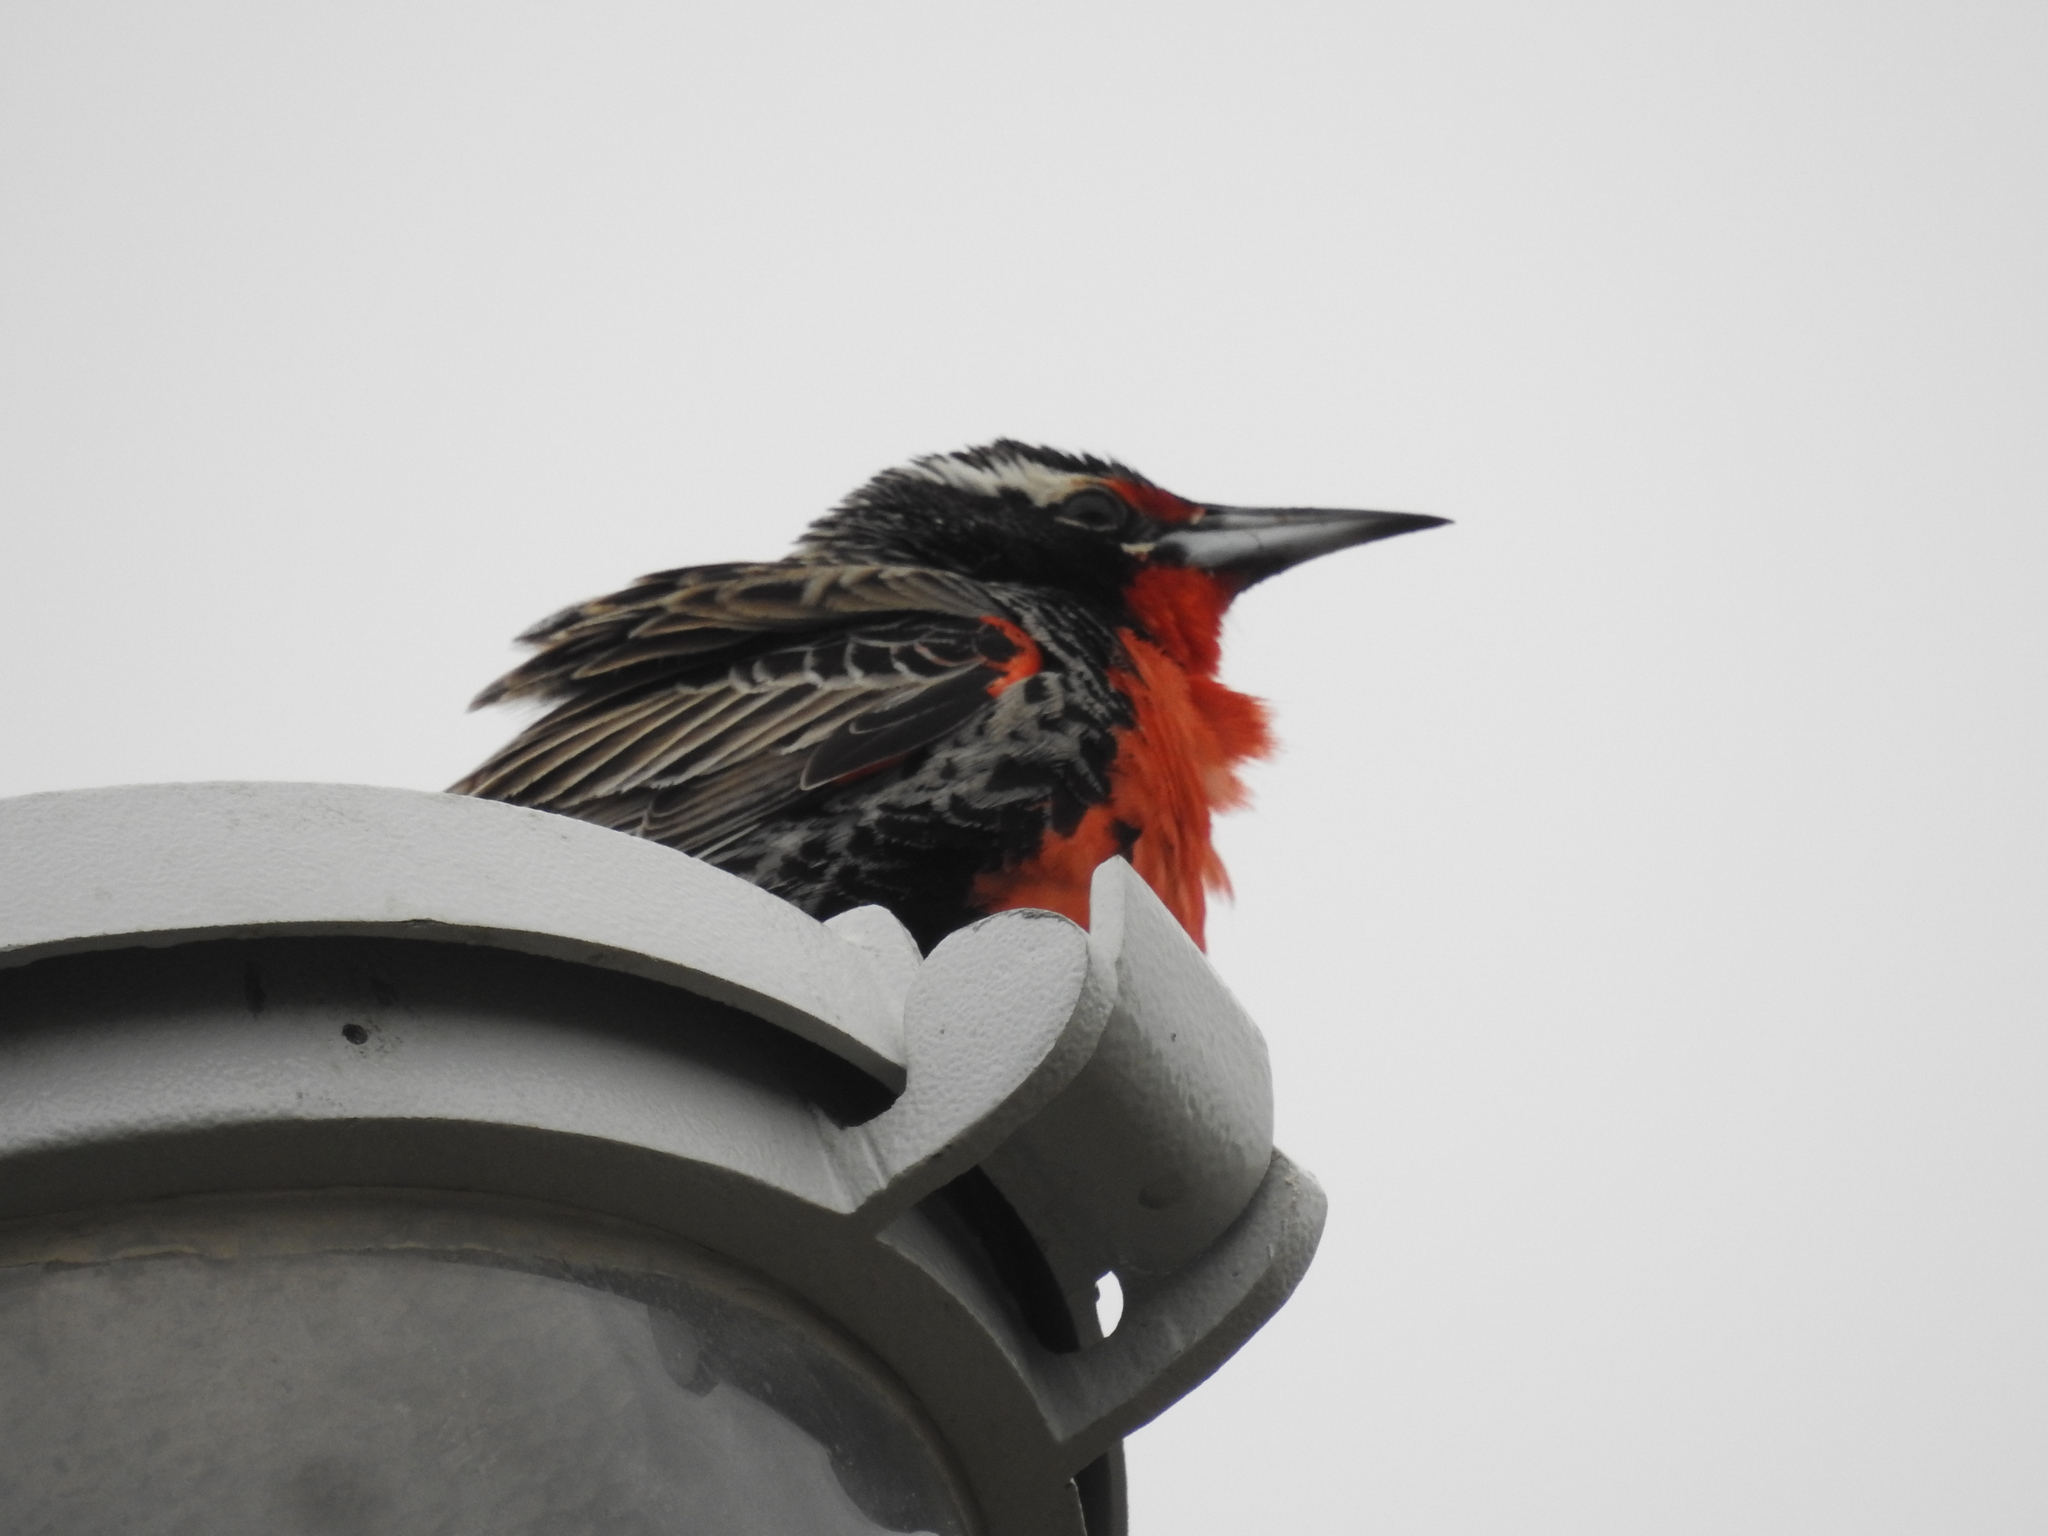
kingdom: Animalia
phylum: Chordata
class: Aves
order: Passeriformes
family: Icteridae
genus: Sturnella
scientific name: Sturnella loyca
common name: Long-tailed meadowlark
